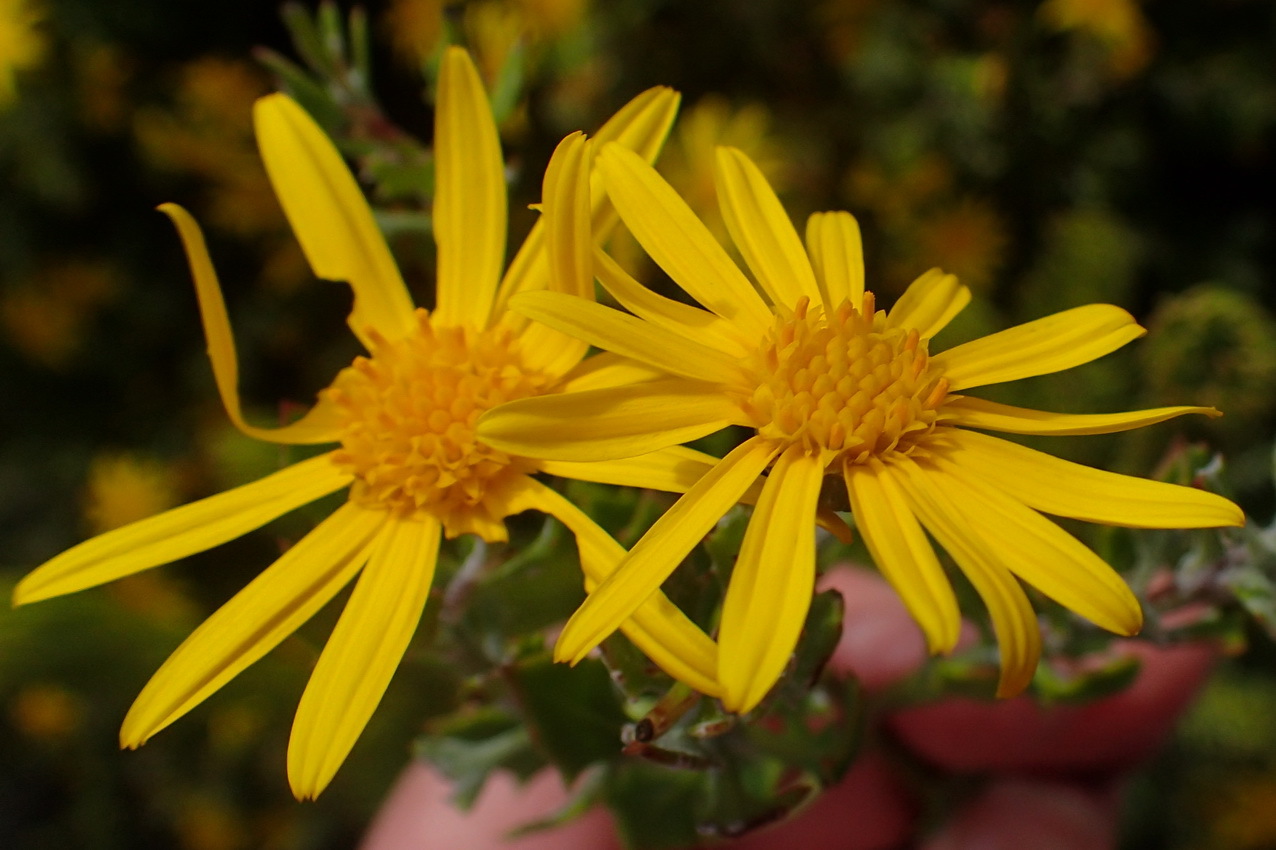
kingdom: Plantae
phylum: Tracheophyta
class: Magnoliopsida
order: Asterales
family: Asteraceae
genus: Osteospermum
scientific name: Osteospermum moniliferum
